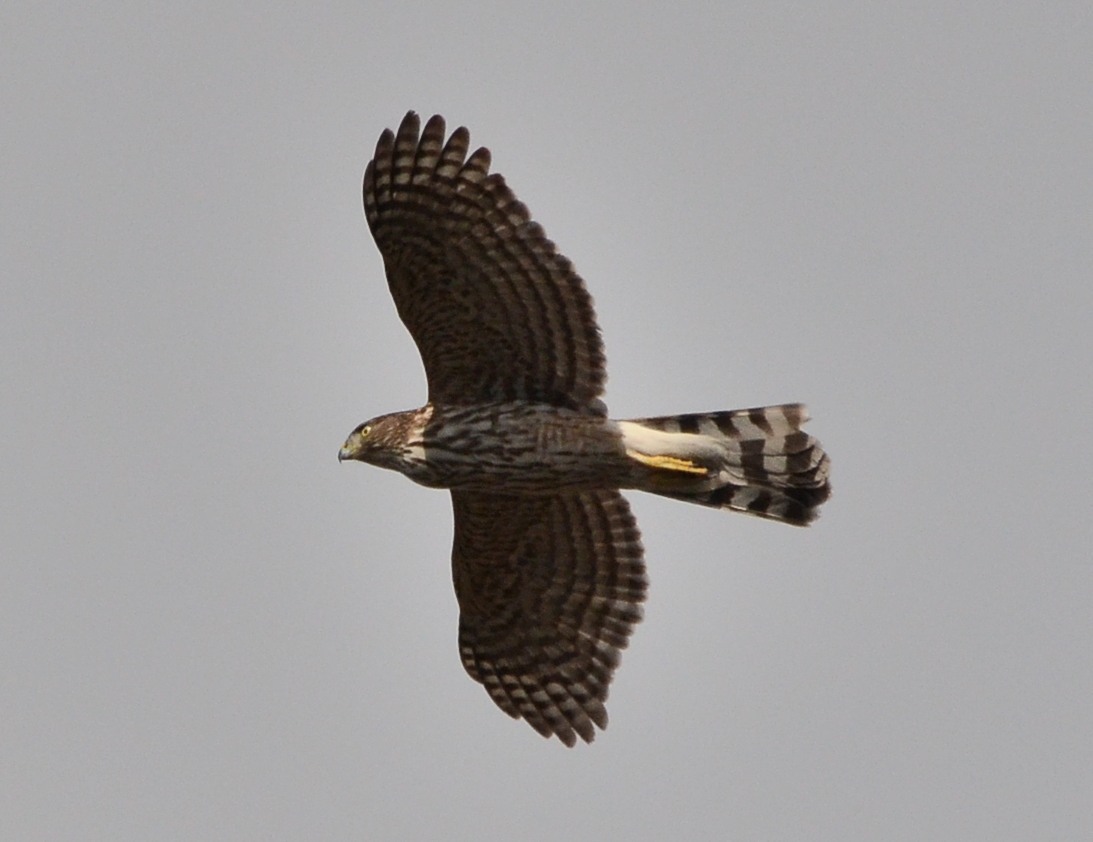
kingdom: Animalia
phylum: Chordata
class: Aves
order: Accipitriformes
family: Accipitridae
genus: Accipiter
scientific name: Accipiter cooperii
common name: Cooper's hawk
